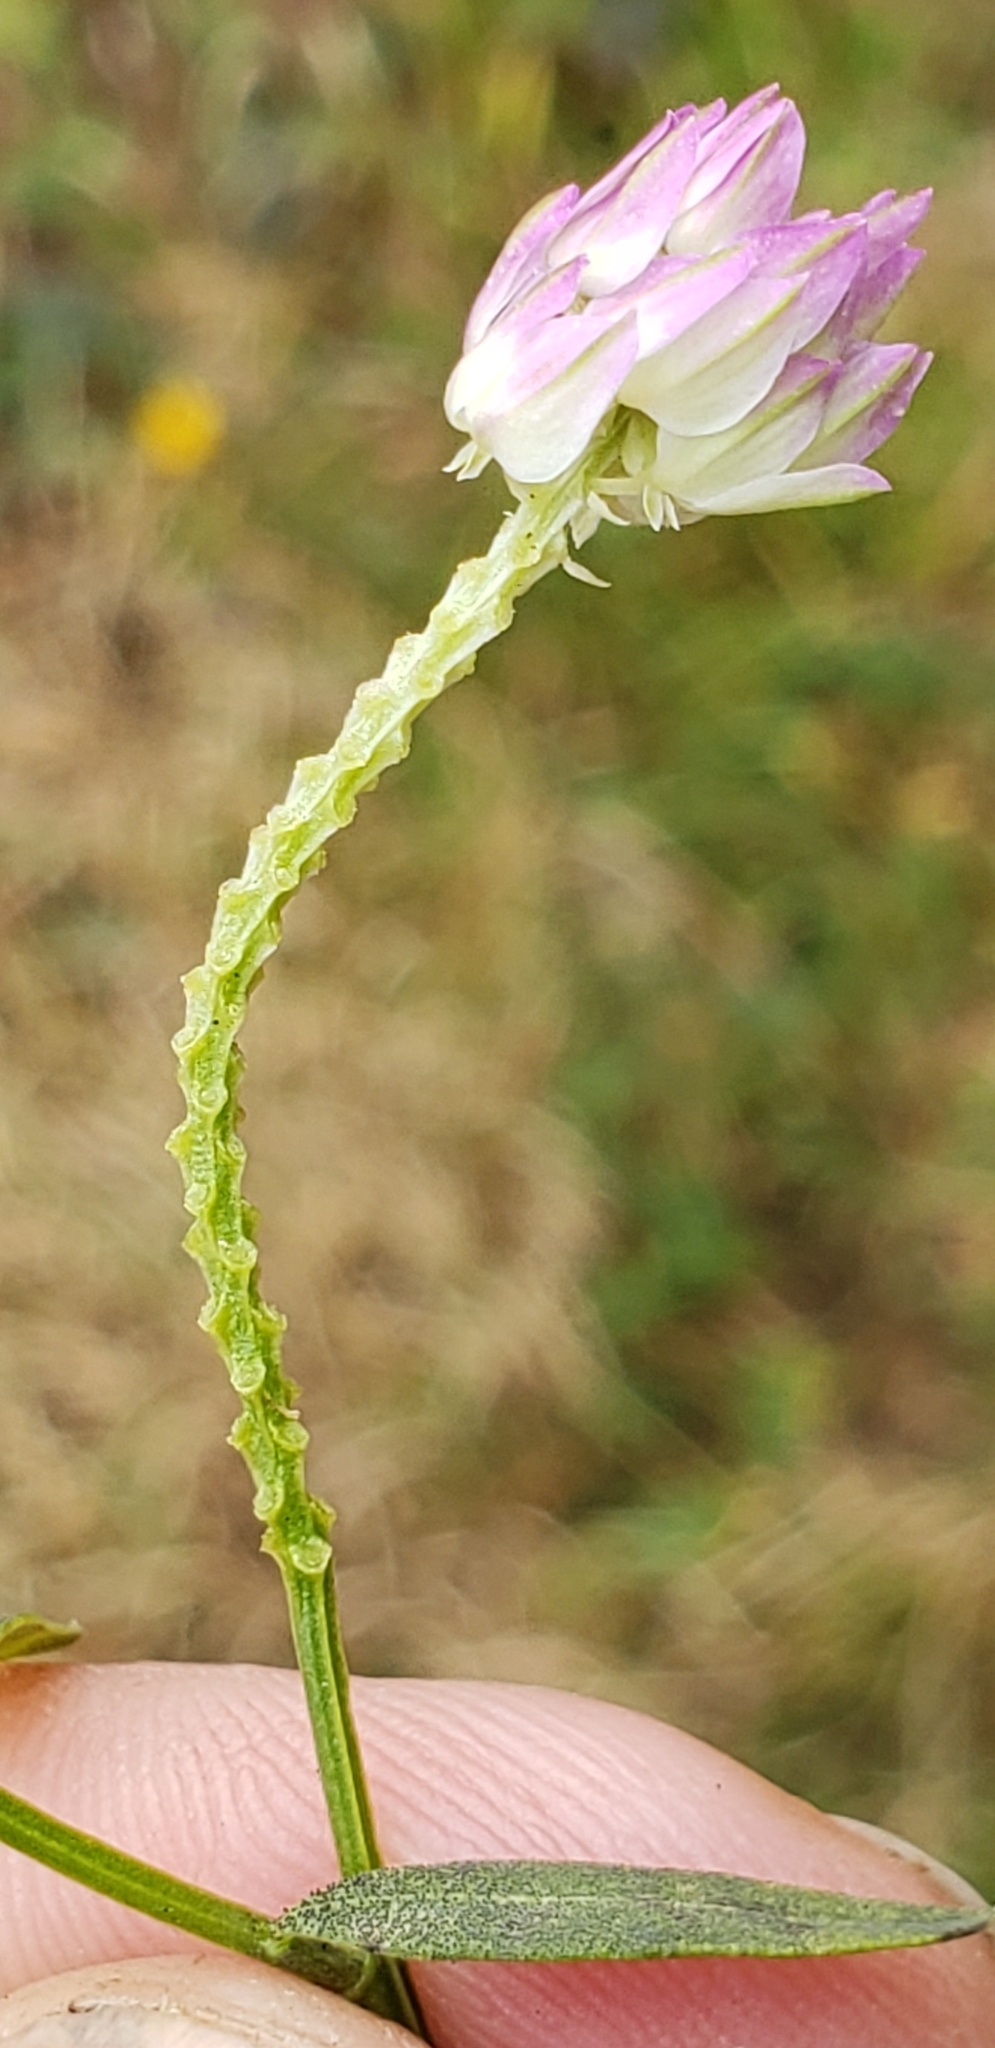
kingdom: Plantae
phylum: Tracheophyta
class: Magnoliopsida
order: Fabales
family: Polygalaceae
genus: Polygala
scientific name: Polygala sanguinea
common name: Blood milkwort
